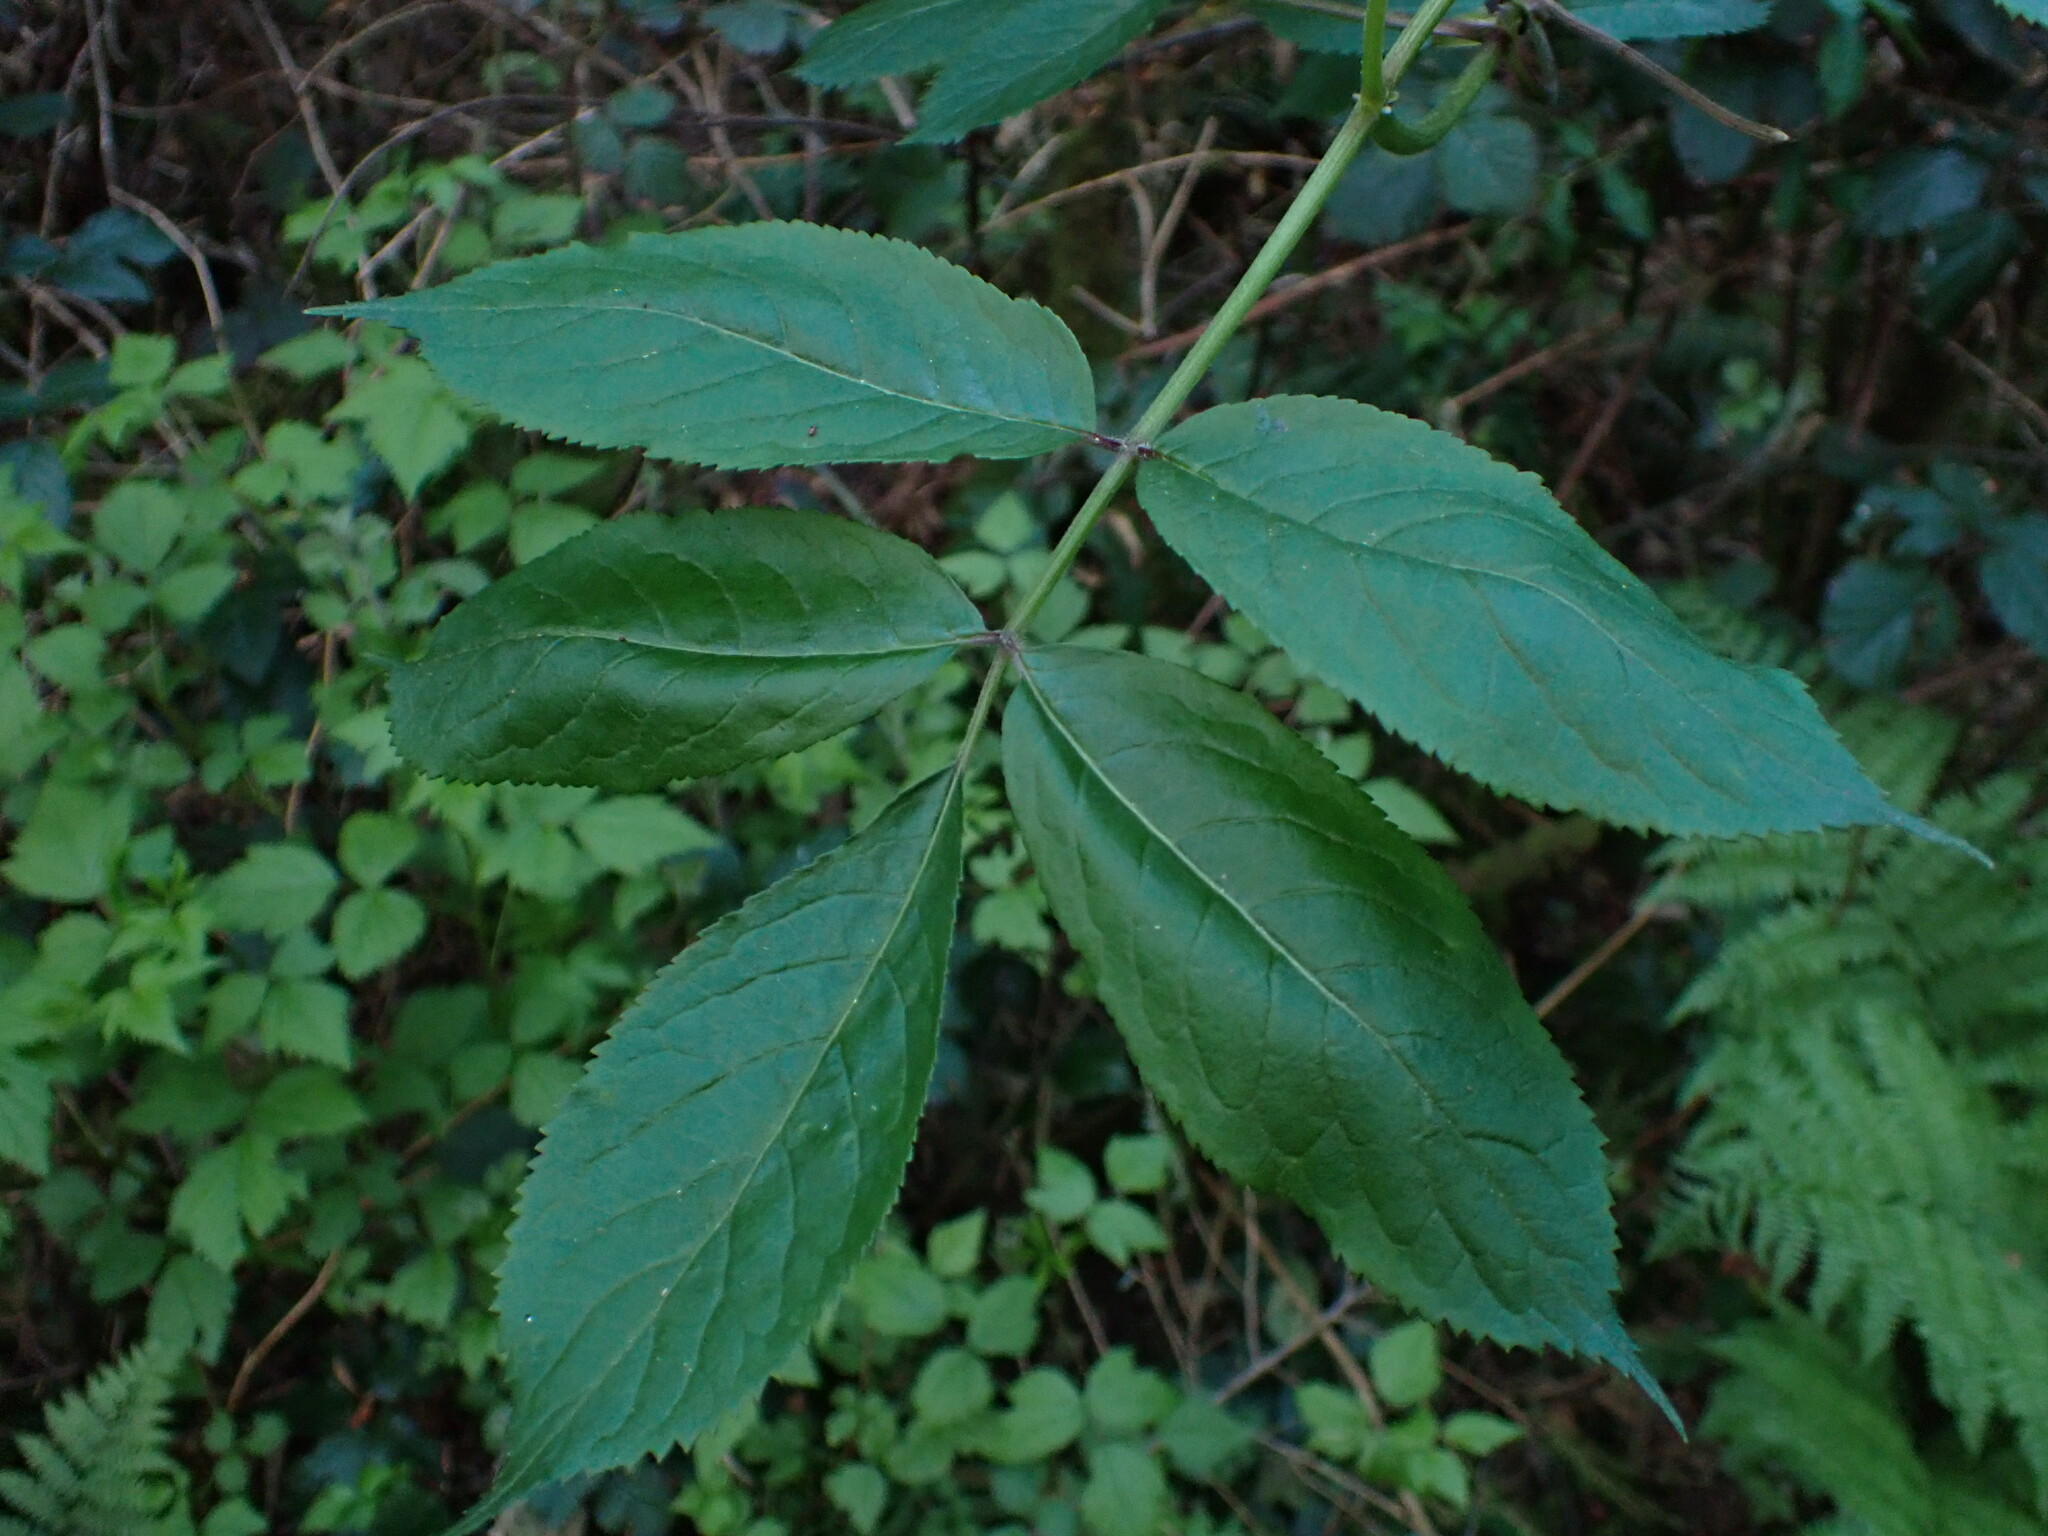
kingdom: Plantae
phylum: Tracheophyta
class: Magnoliopsida
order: Dipsacales
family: Viburnaceae
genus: Sambucus
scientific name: Sambucus racemosa
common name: Red-berried elder
